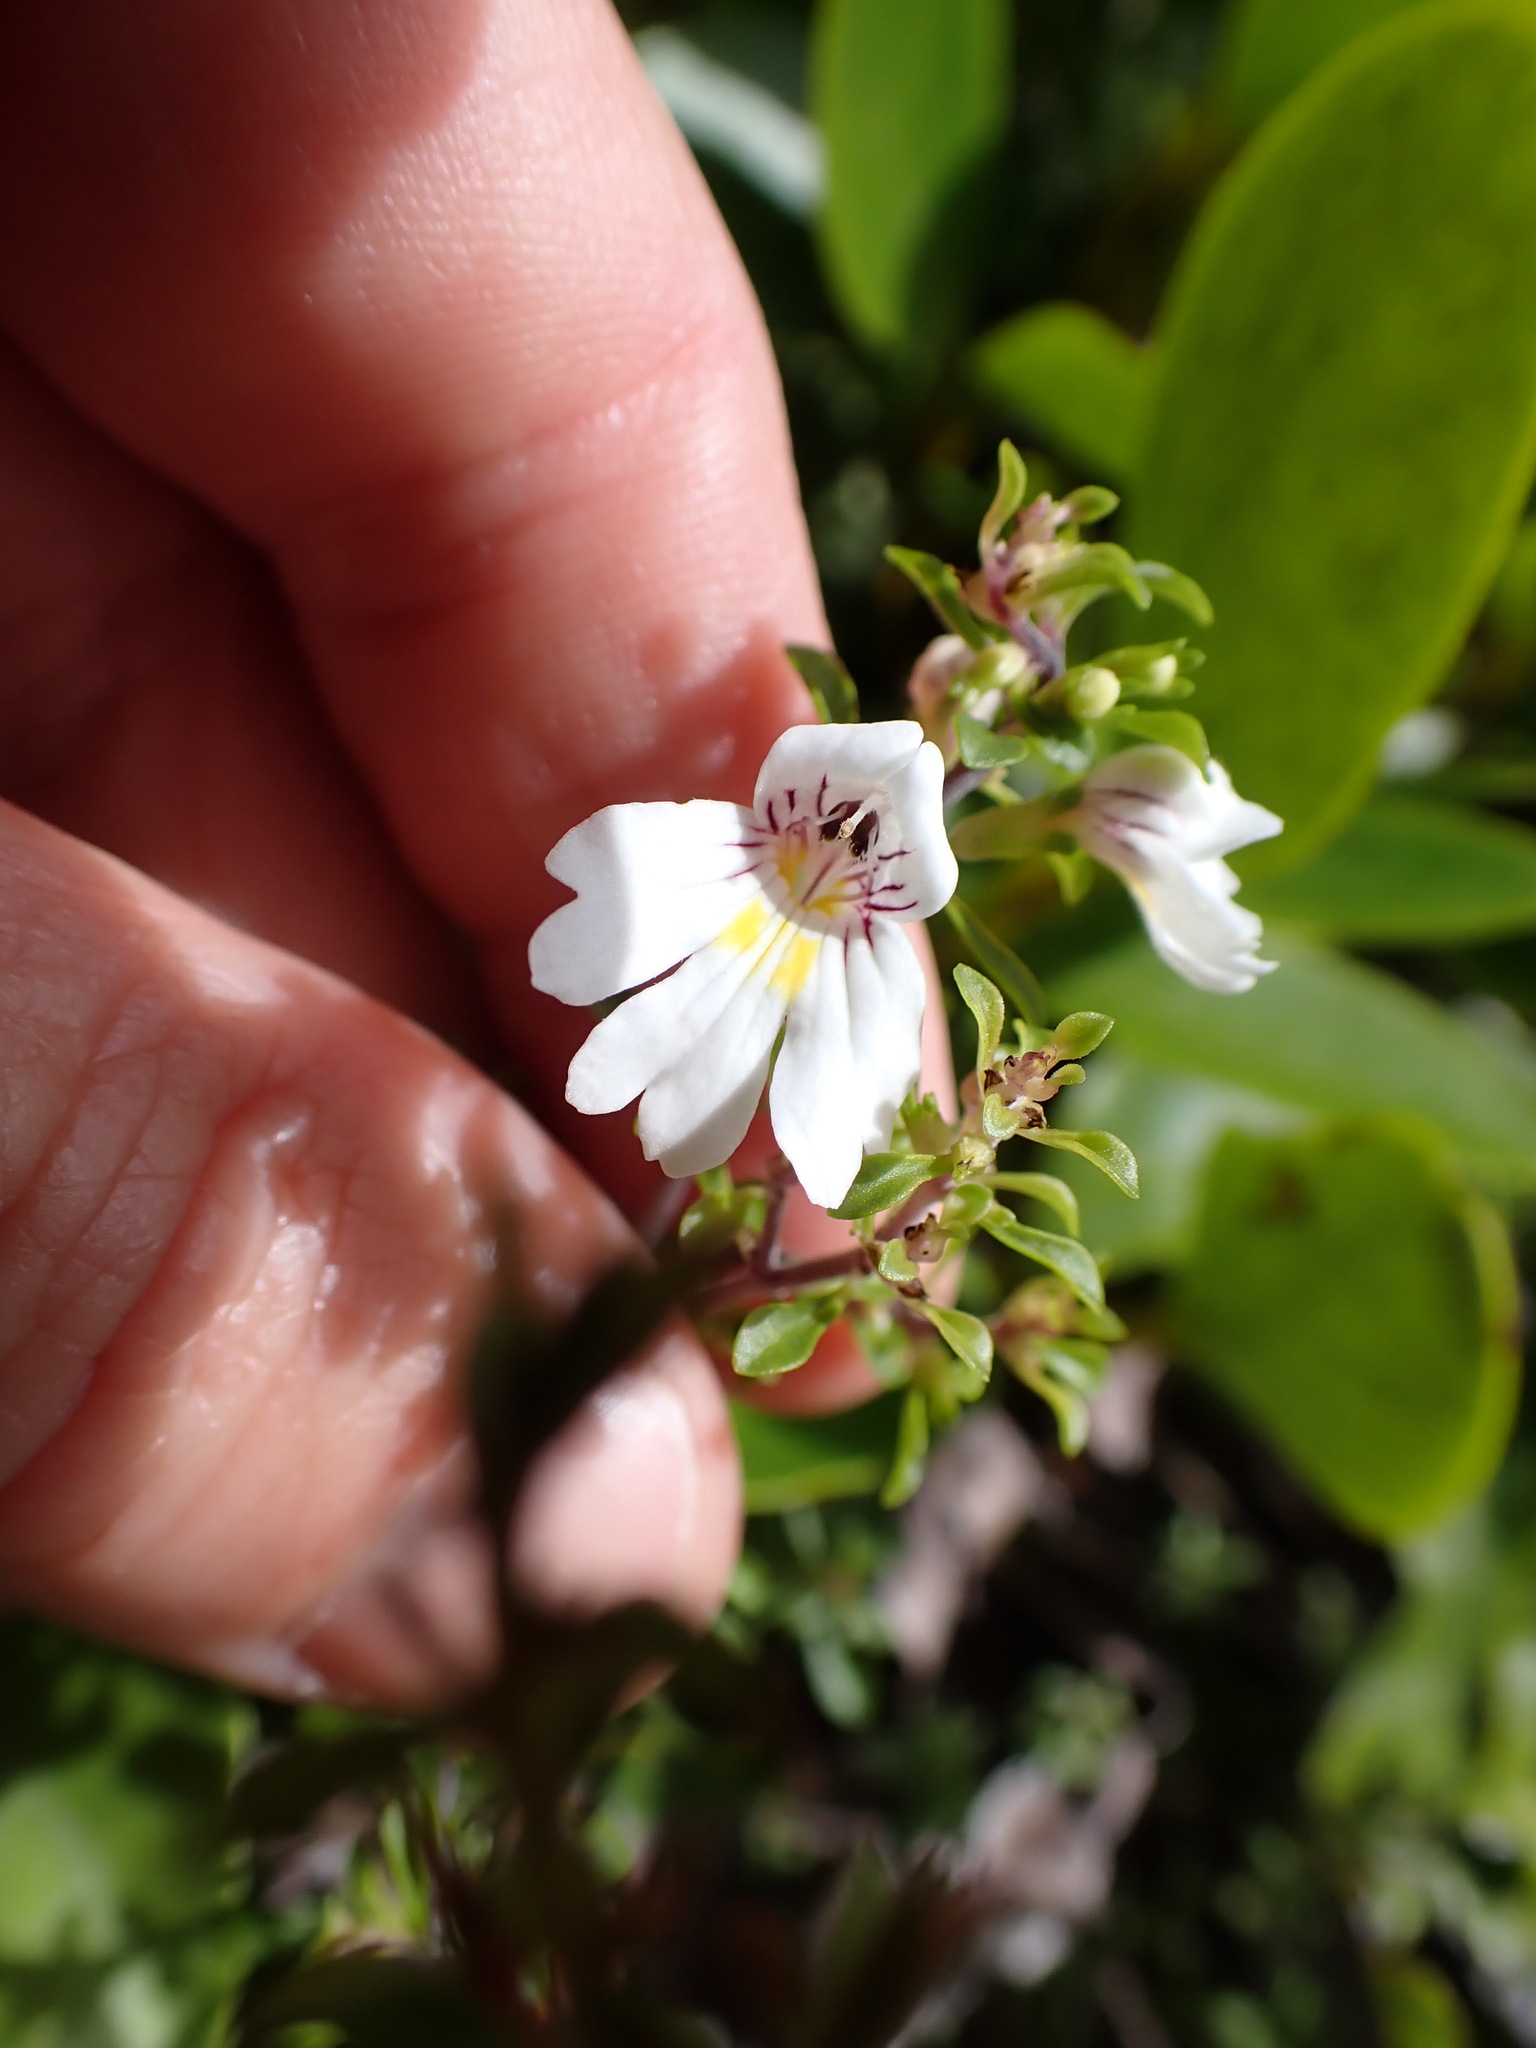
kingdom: Plantae
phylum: Tracheophyta
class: Magnoliopsida
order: Lamiales
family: Orobanchaceae
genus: Euphrasia
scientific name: Euphrasia cuneata
